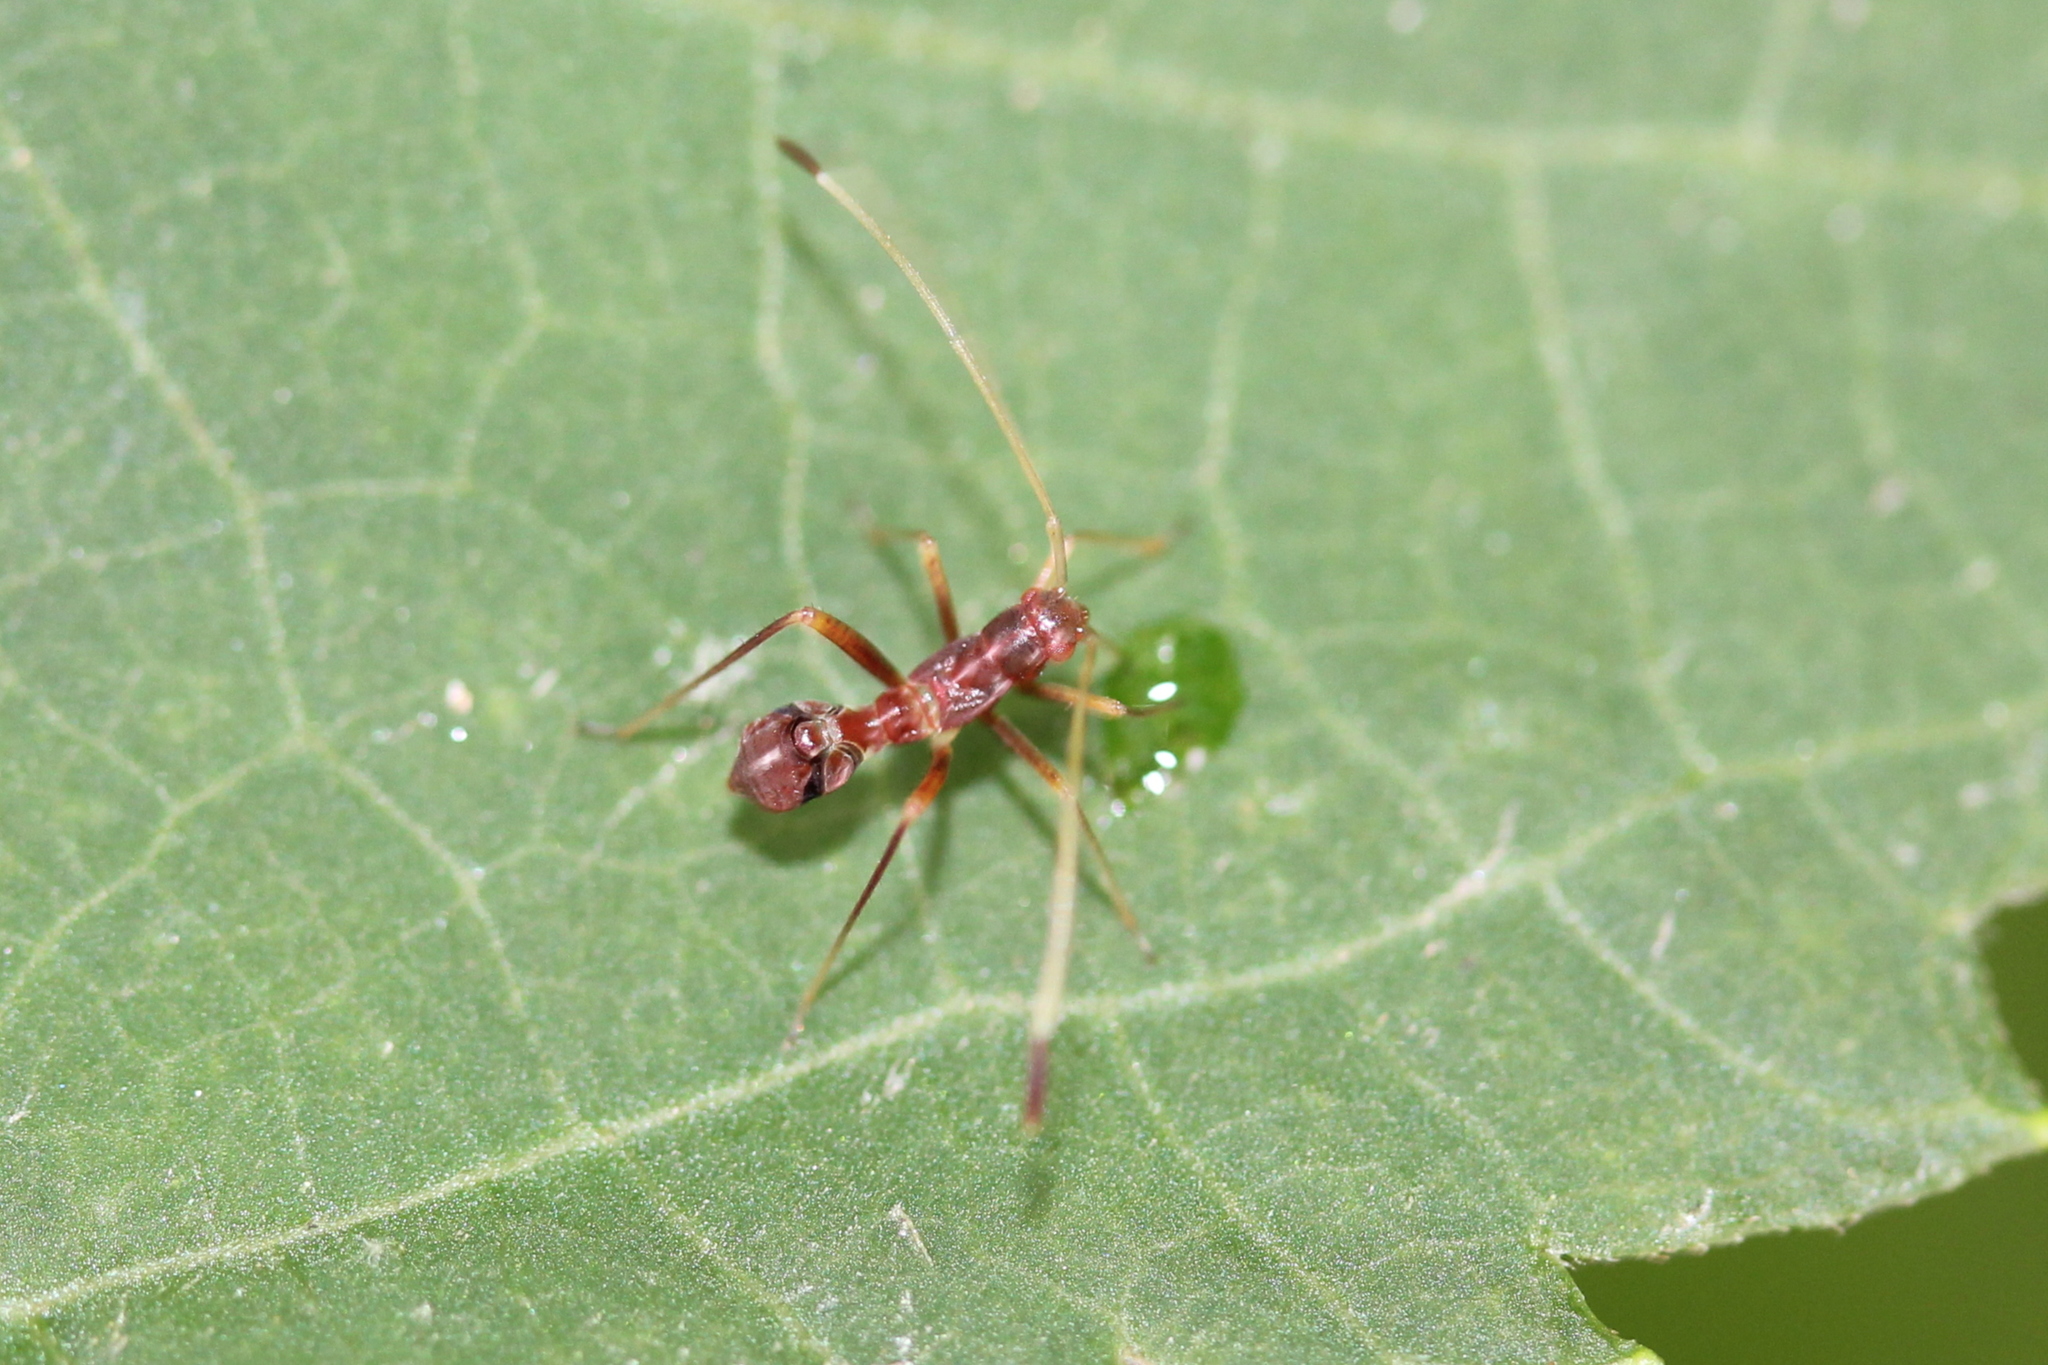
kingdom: Animalia
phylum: Arthropoda
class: Insecta
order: Hemiptera
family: Miridae
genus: Paraxenetus
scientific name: Paraxenetus guttulatus
